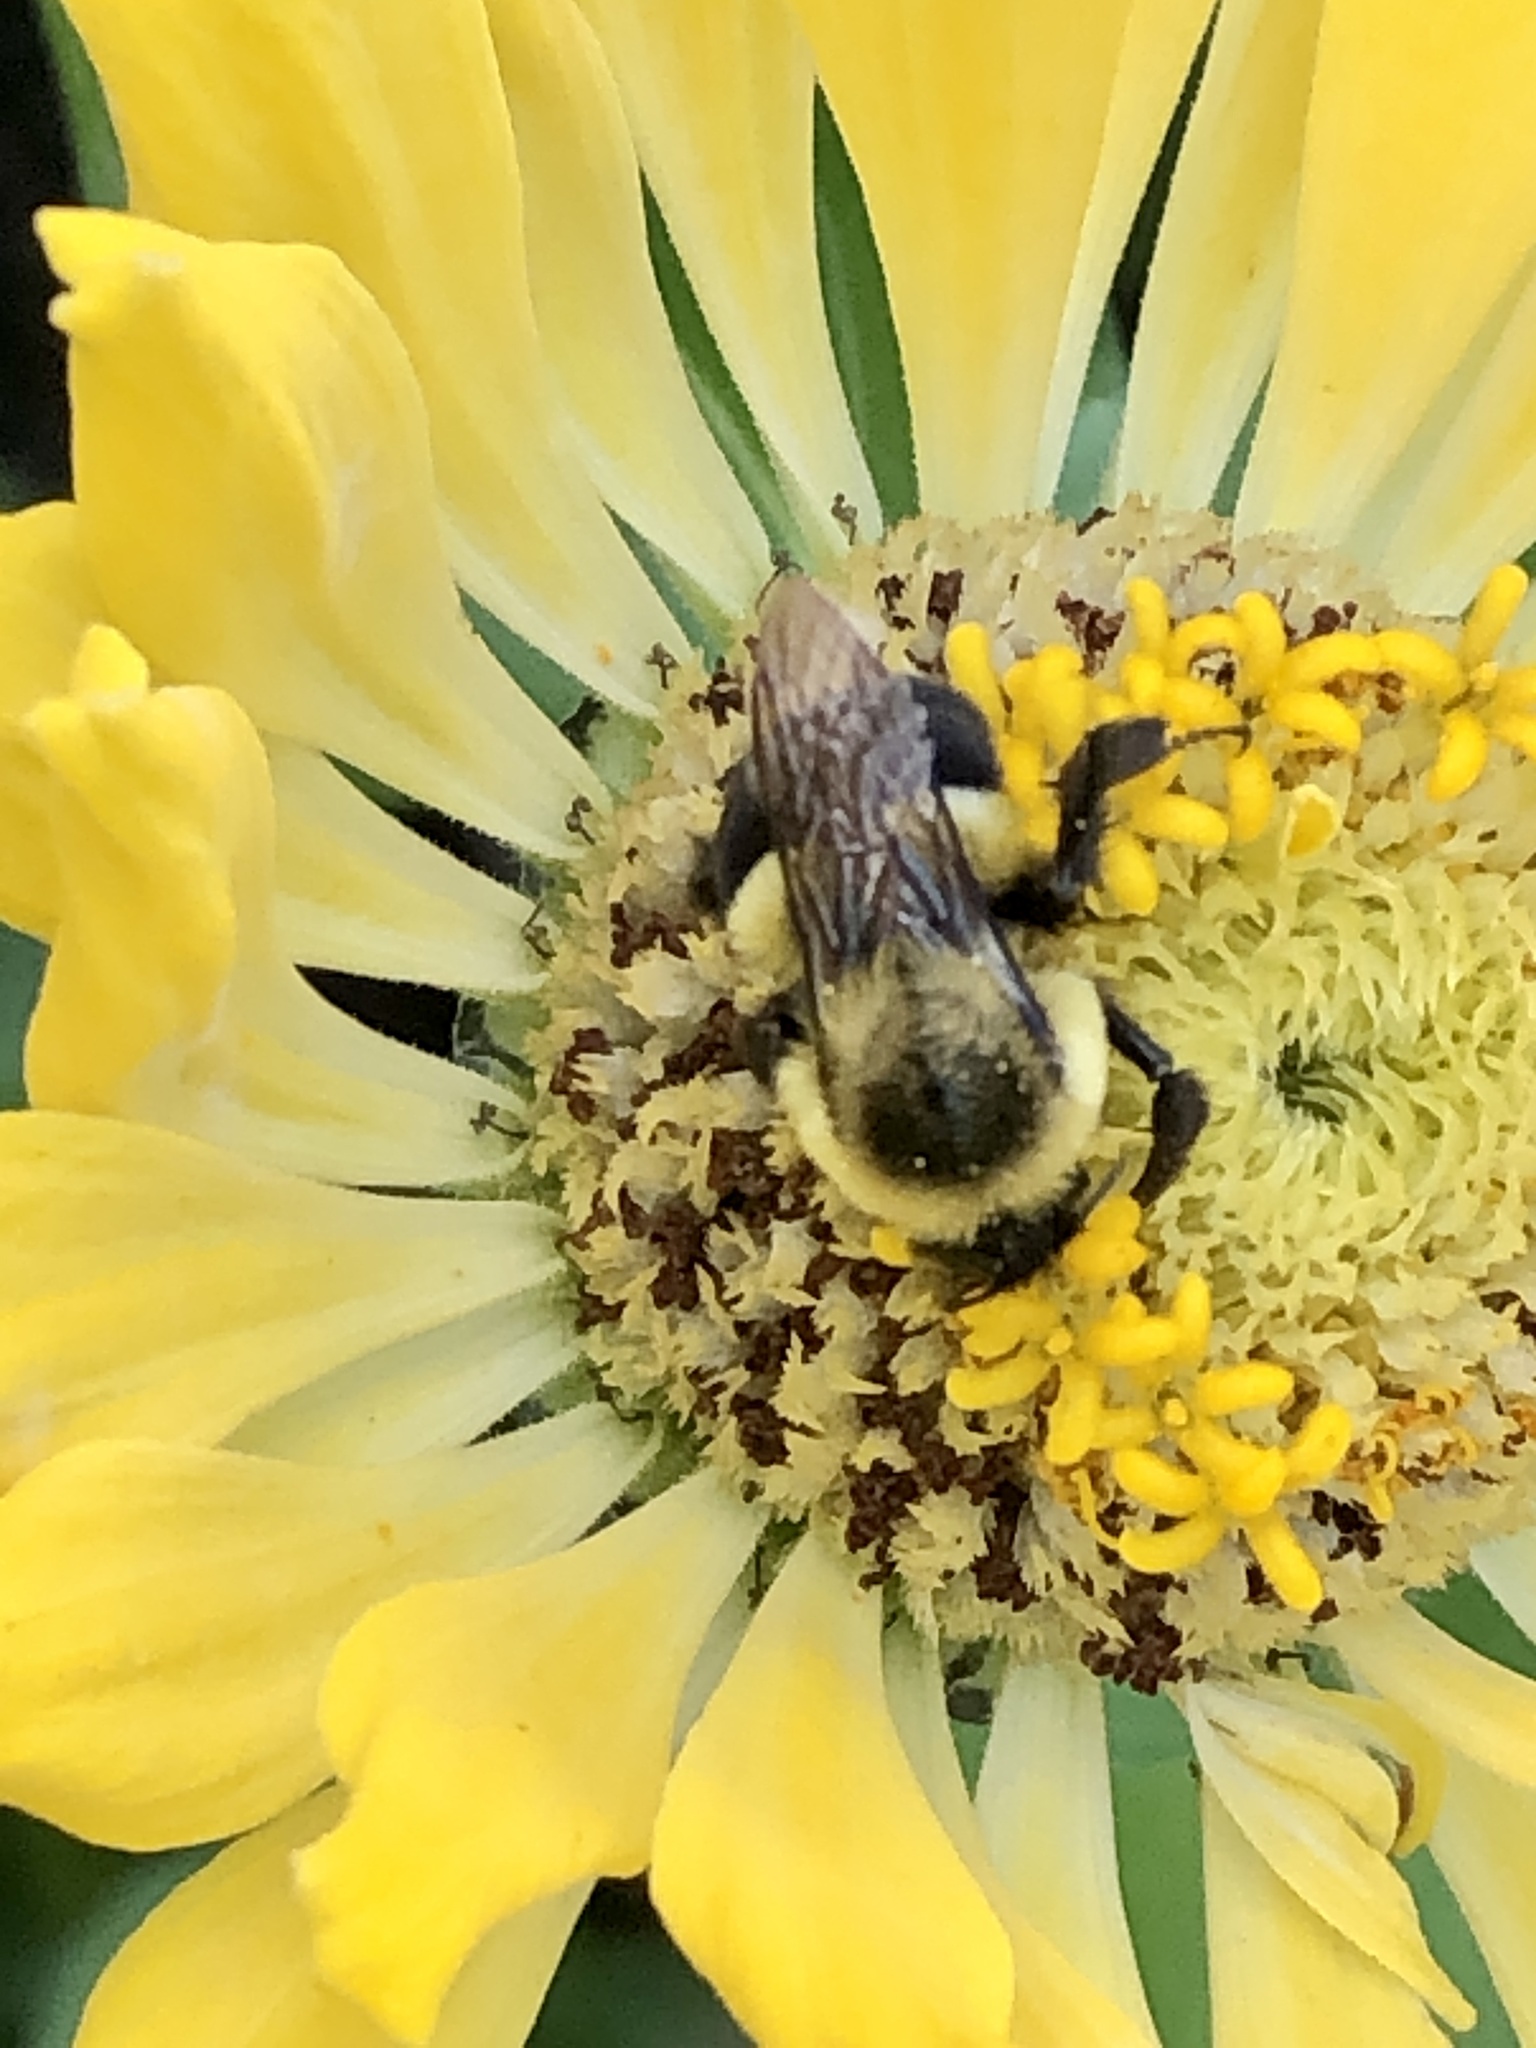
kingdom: Animalia
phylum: Arthropoda
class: Insecta
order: Hymenoptera
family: Apidae
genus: Bombus
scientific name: Bombus impatiens
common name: Common eastern bumble bee
